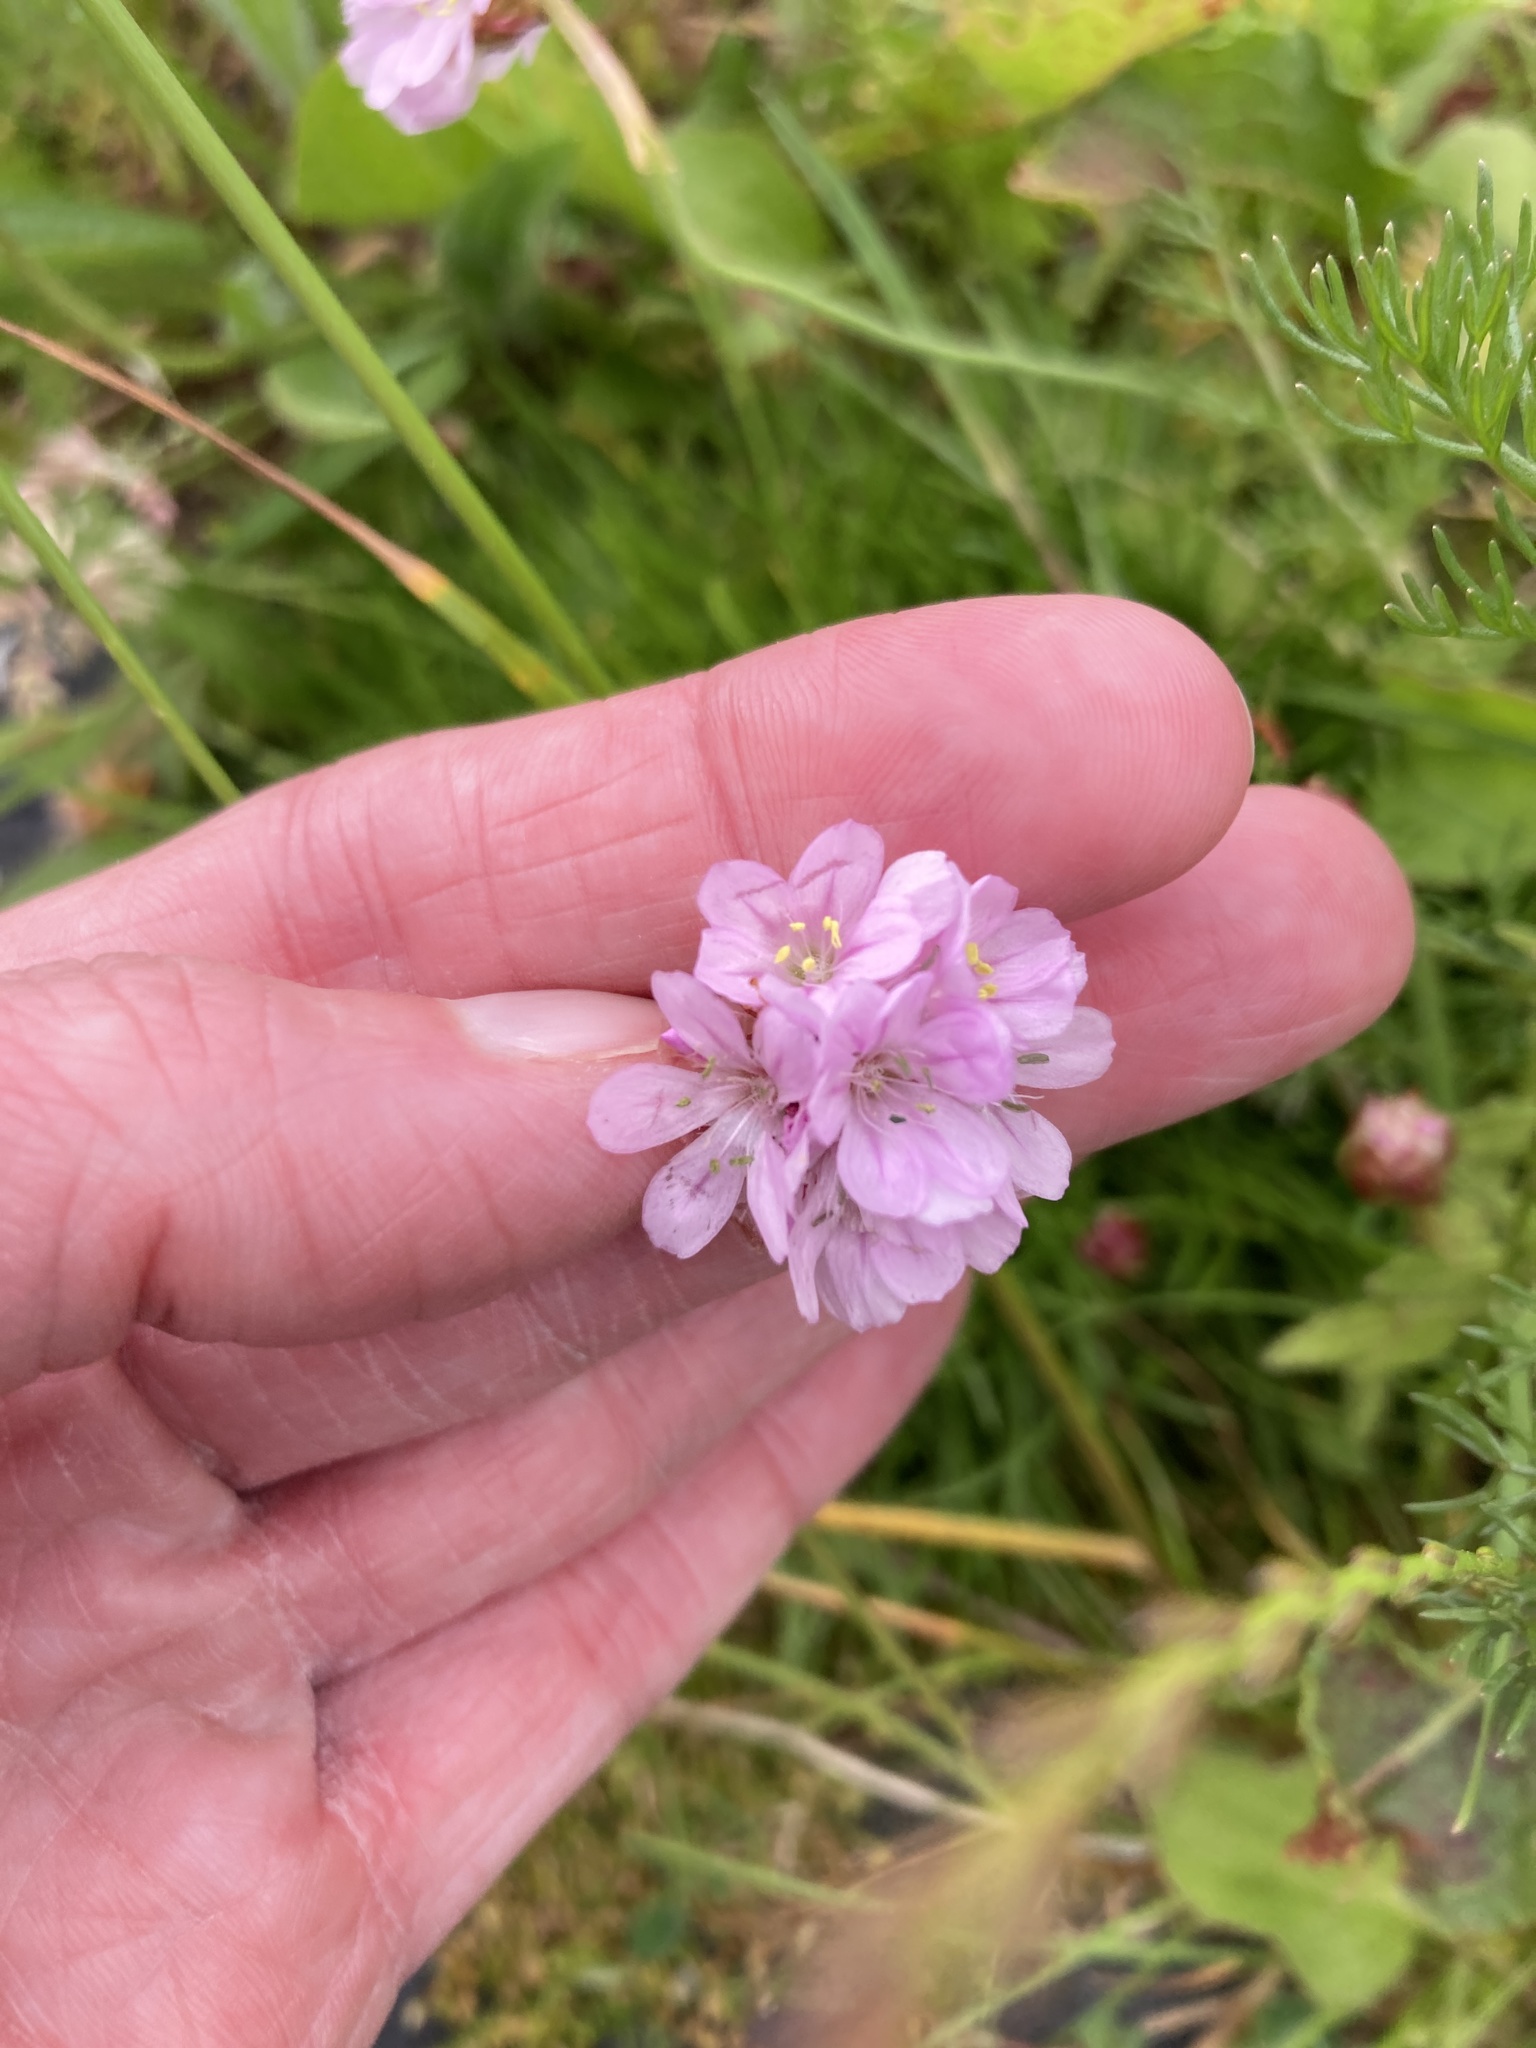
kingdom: Plantae
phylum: Tracheophyta
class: Magnoliopsida
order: Caryophyllales
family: Plumbaginaceae
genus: Armeria
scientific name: Armeria maritima
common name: Thrift
